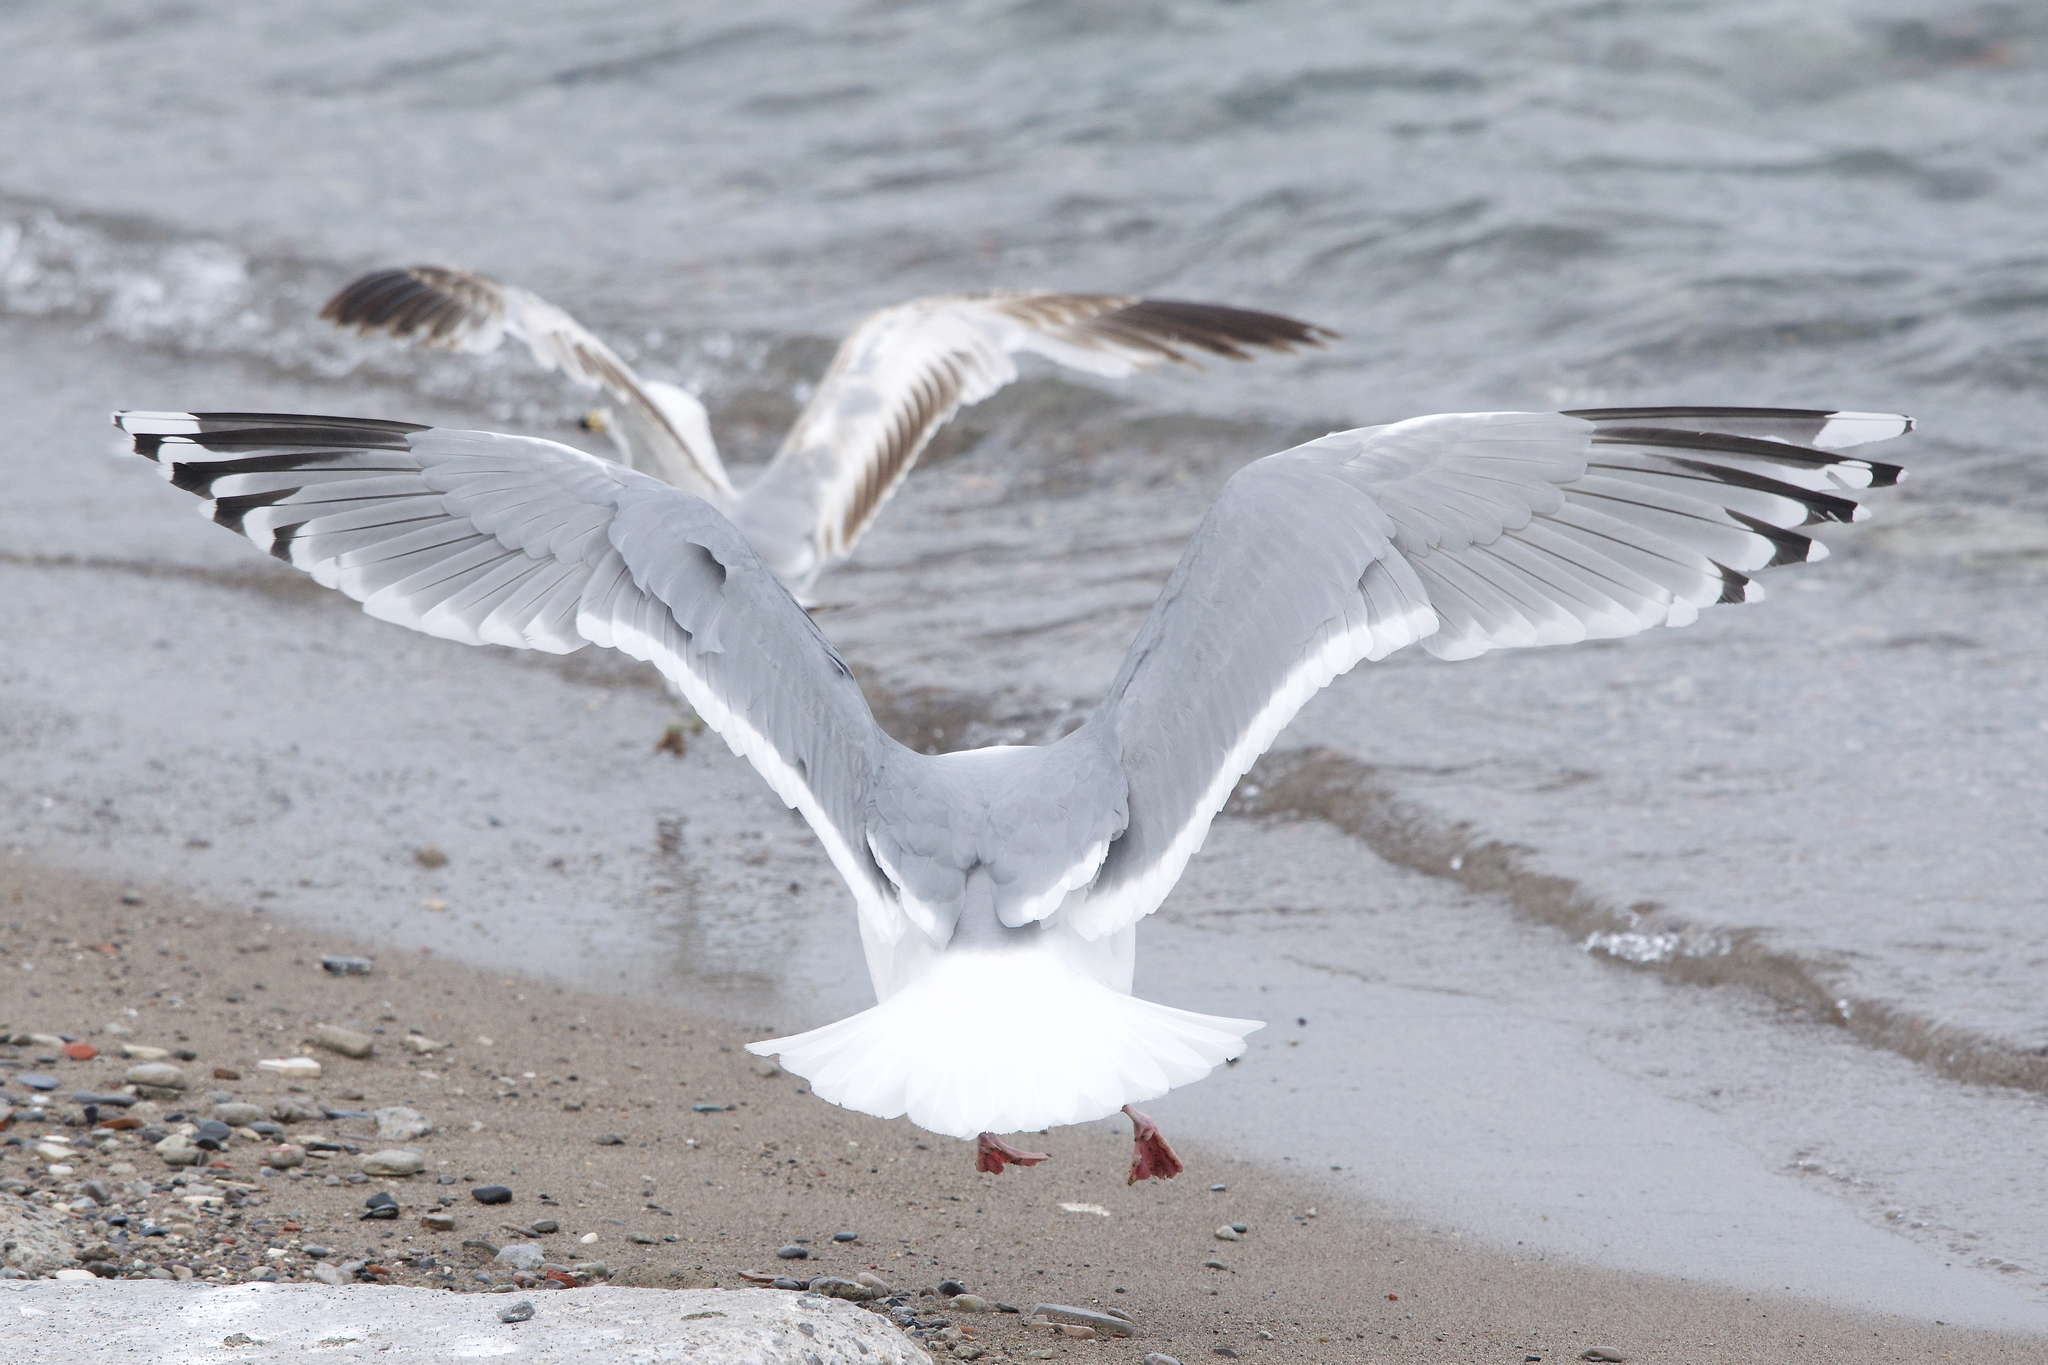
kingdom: Animalia
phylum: Chordata
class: Aves
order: Charadriiformes
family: Laridae
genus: Larus
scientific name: Larus glaucoides
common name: Iceland gull
